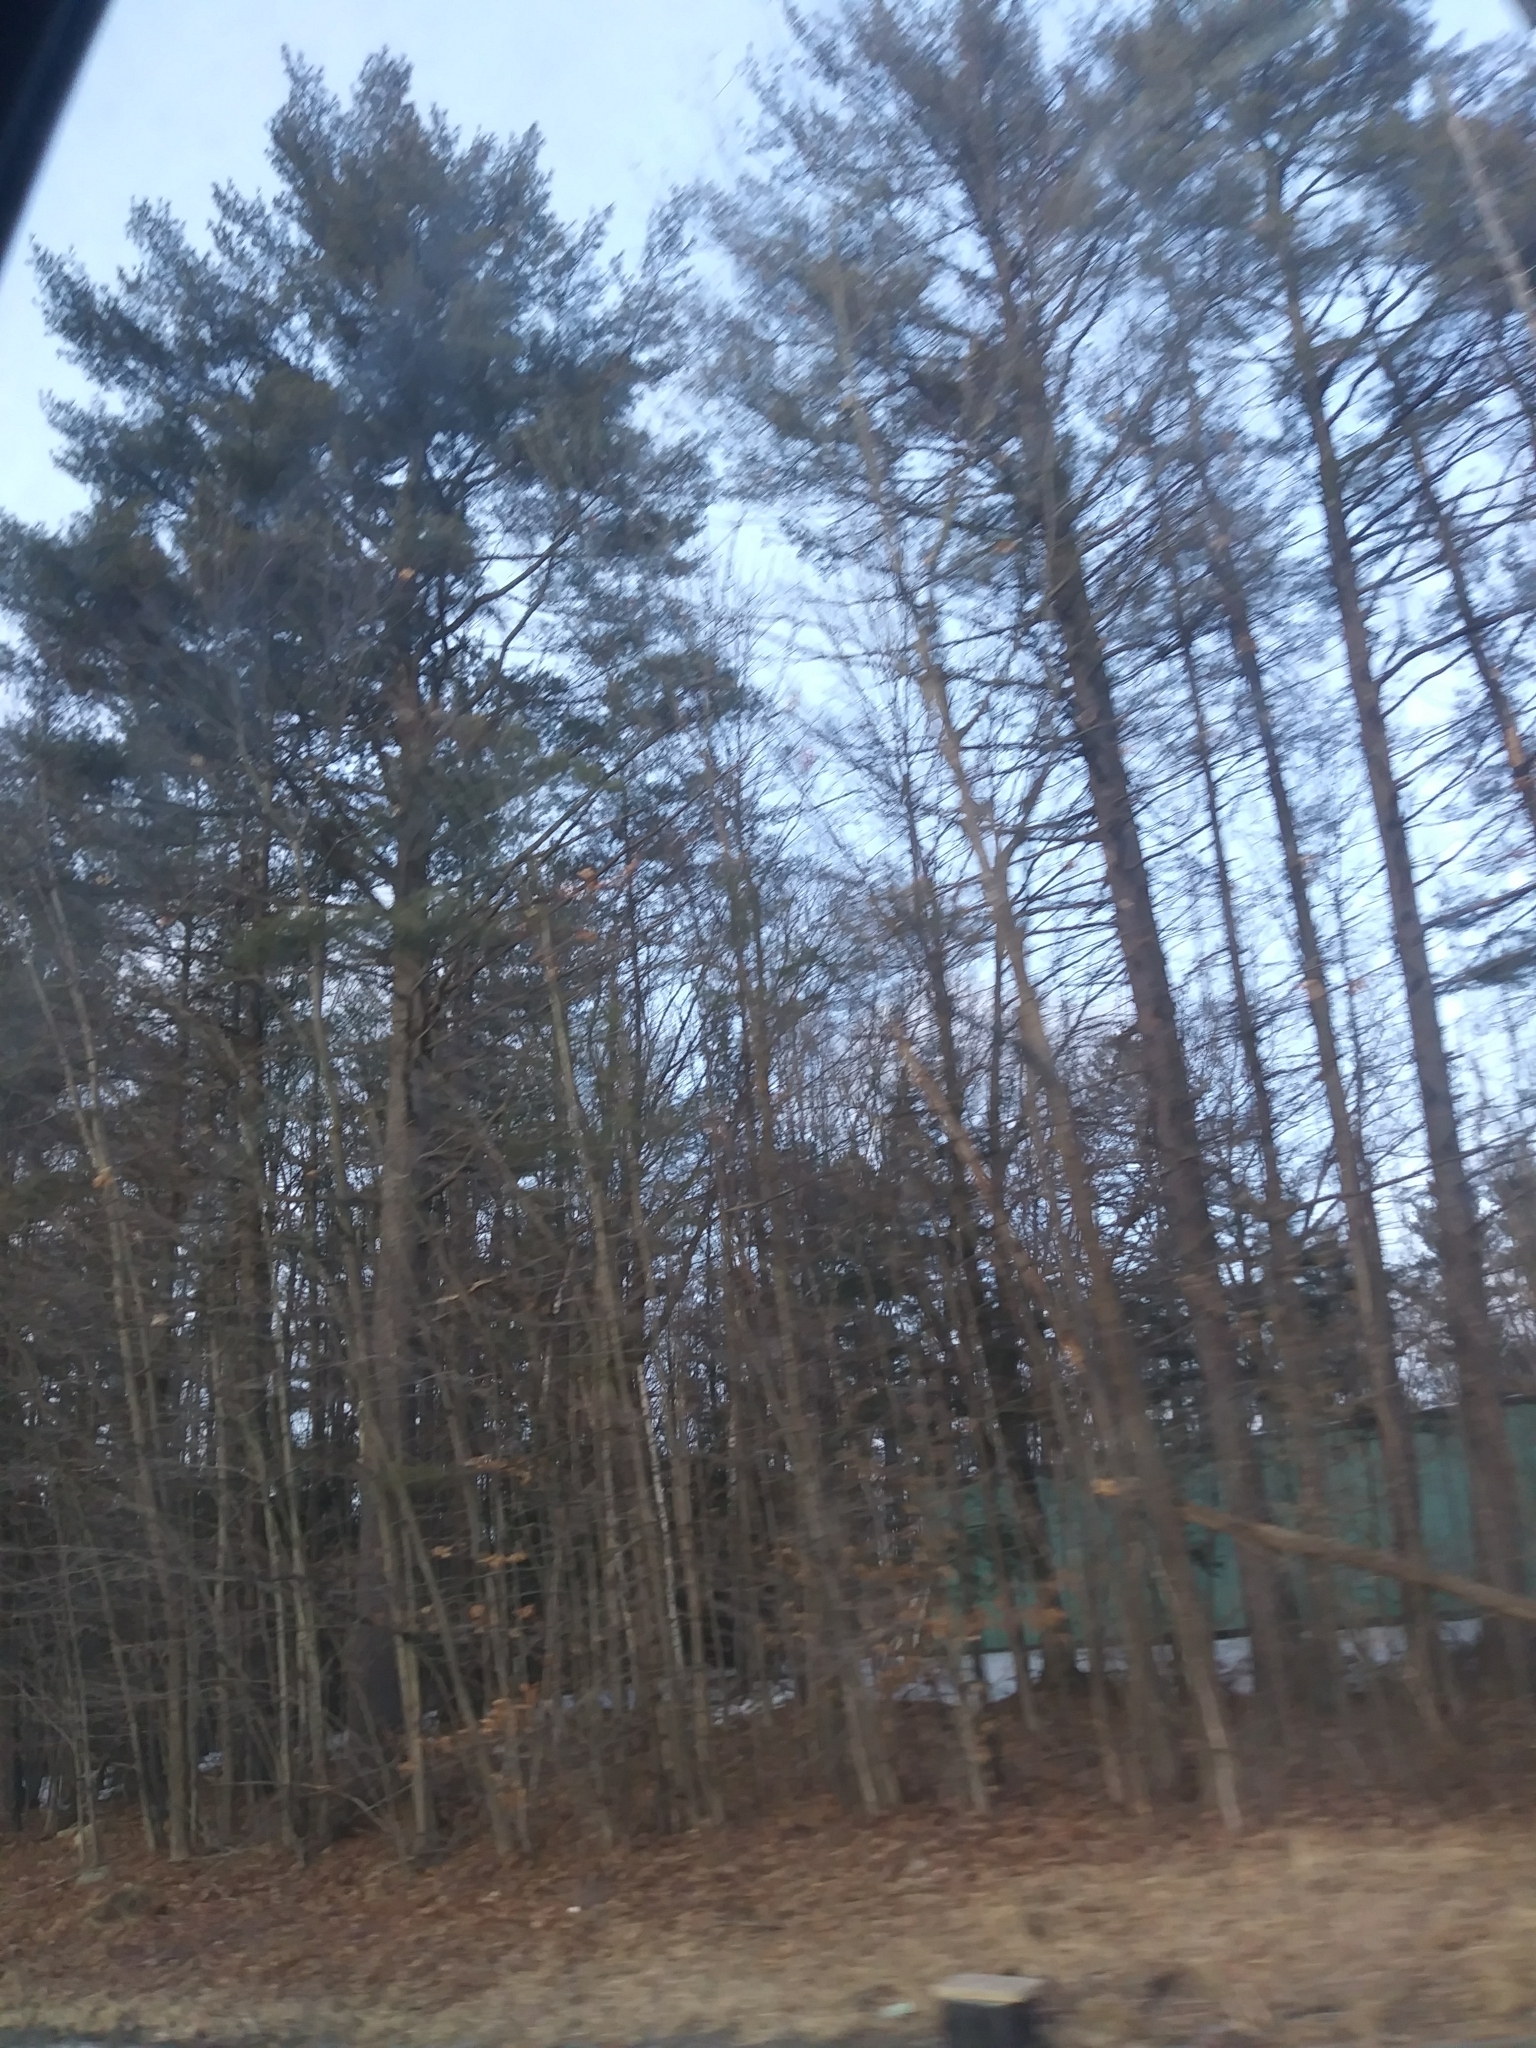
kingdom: Plantae
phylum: Tracheophyta
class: Pinopsida
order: Pinales
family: Pinaceae
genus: Pinus
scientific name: Pinus strobus
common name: Weymouth pine
